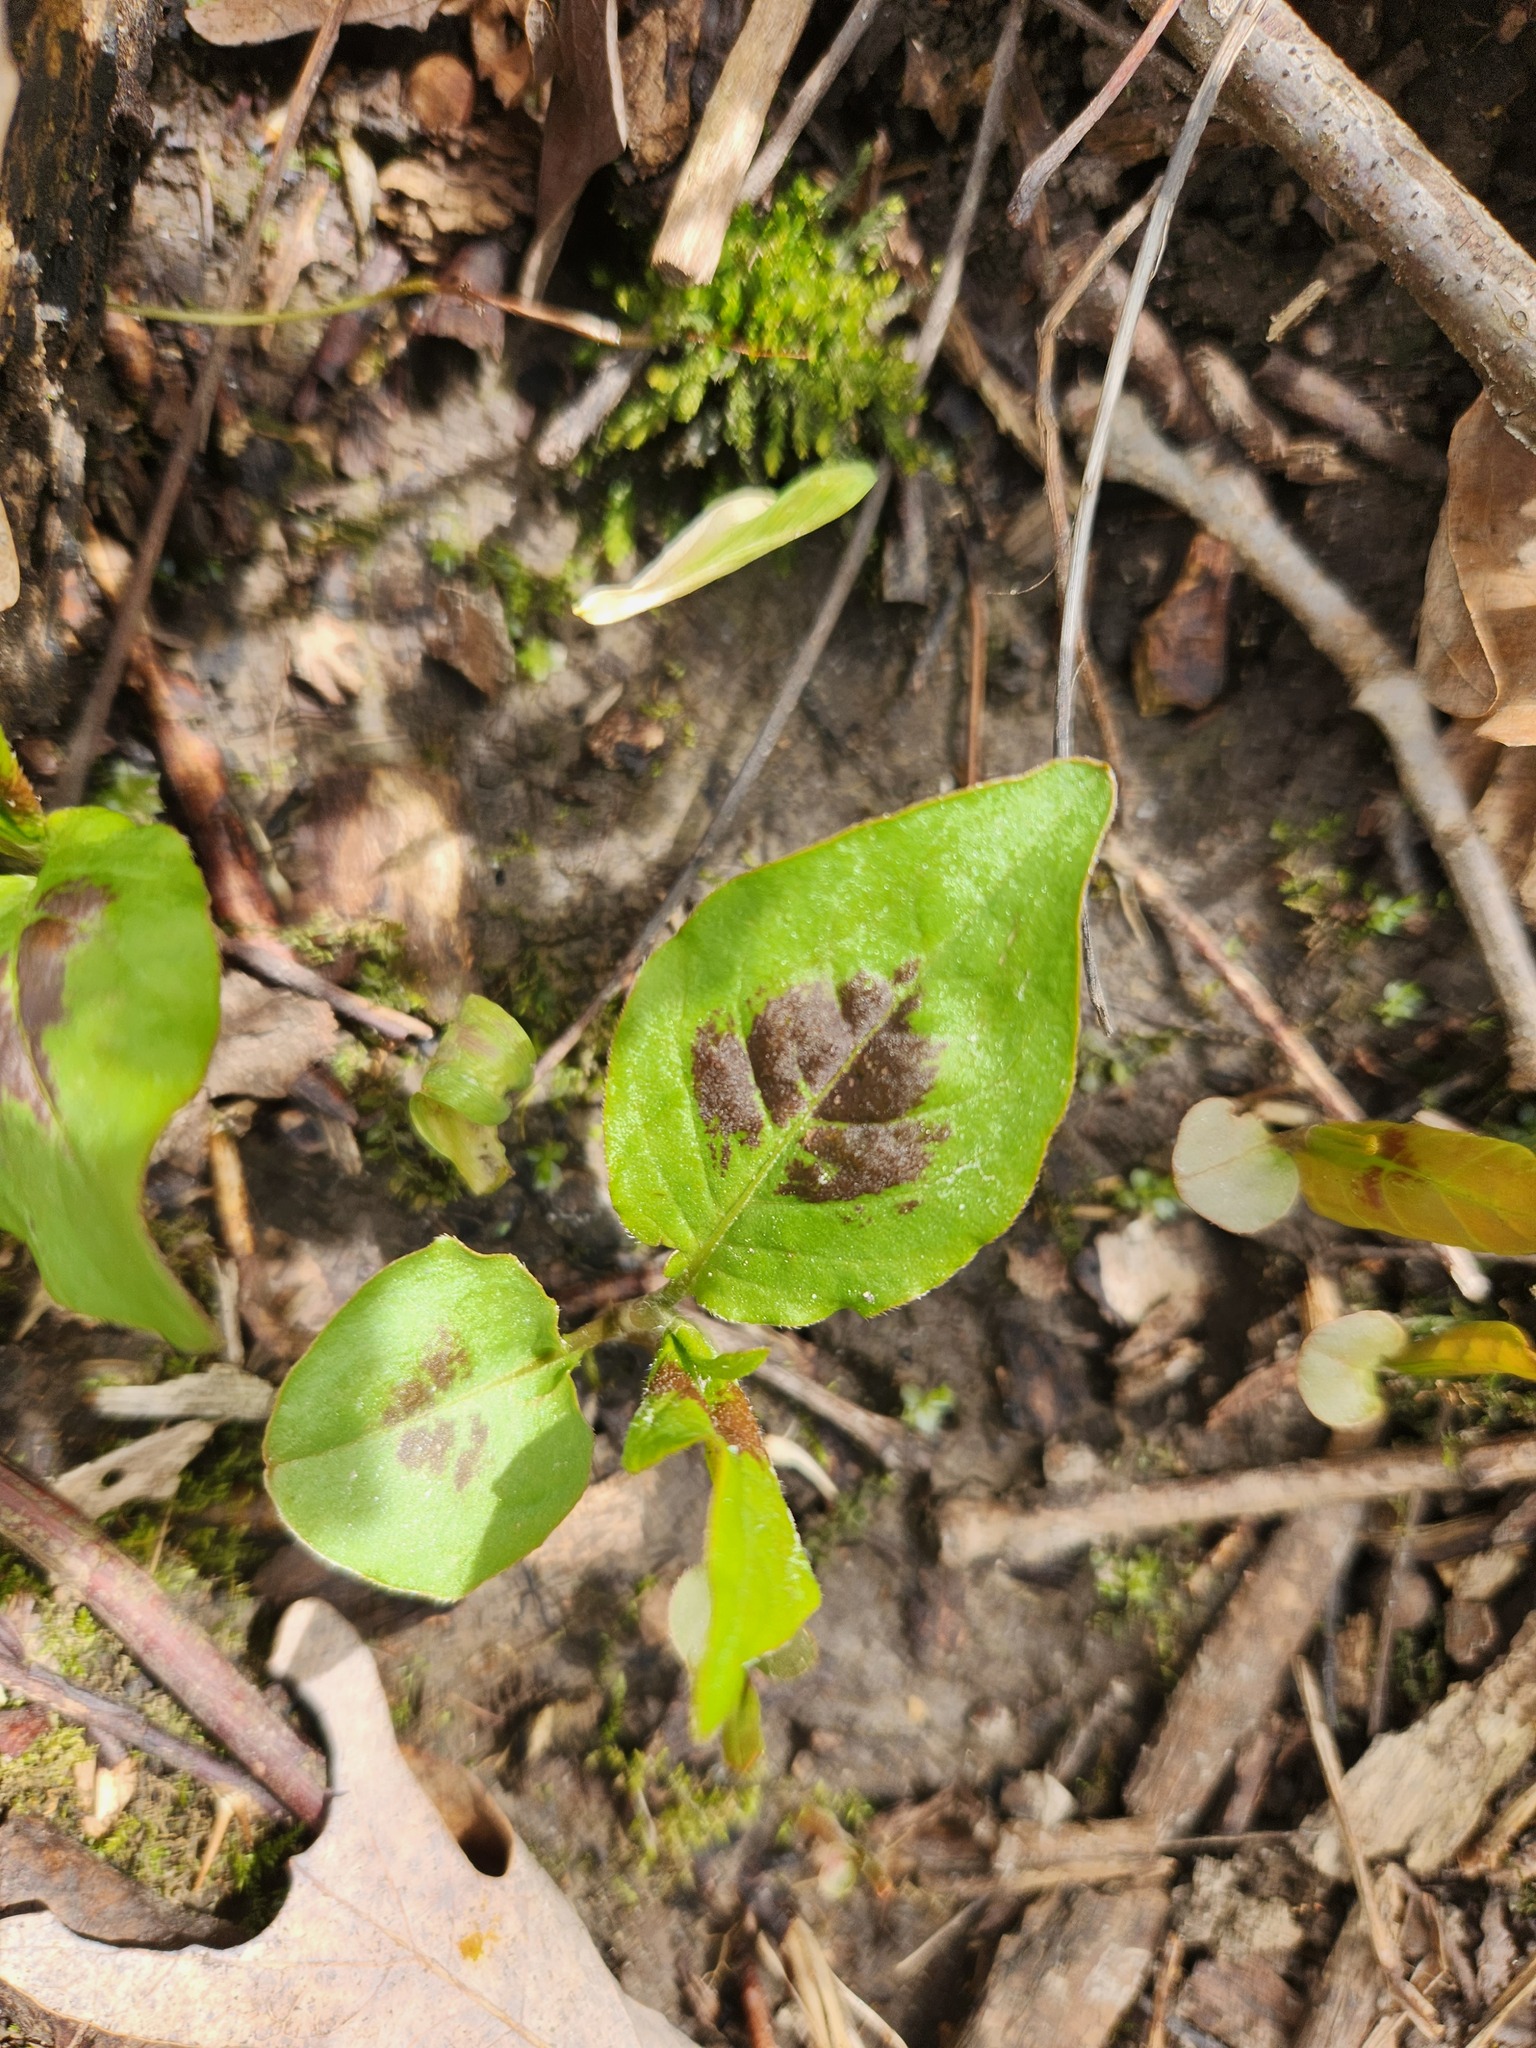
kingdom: Plantae
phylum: Tracheophyta
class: Magnoliopsida
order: Caryophyllales
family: Polygonaceae
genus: Persicaria
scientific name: Persicaria virginiana
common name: Jumpseed
